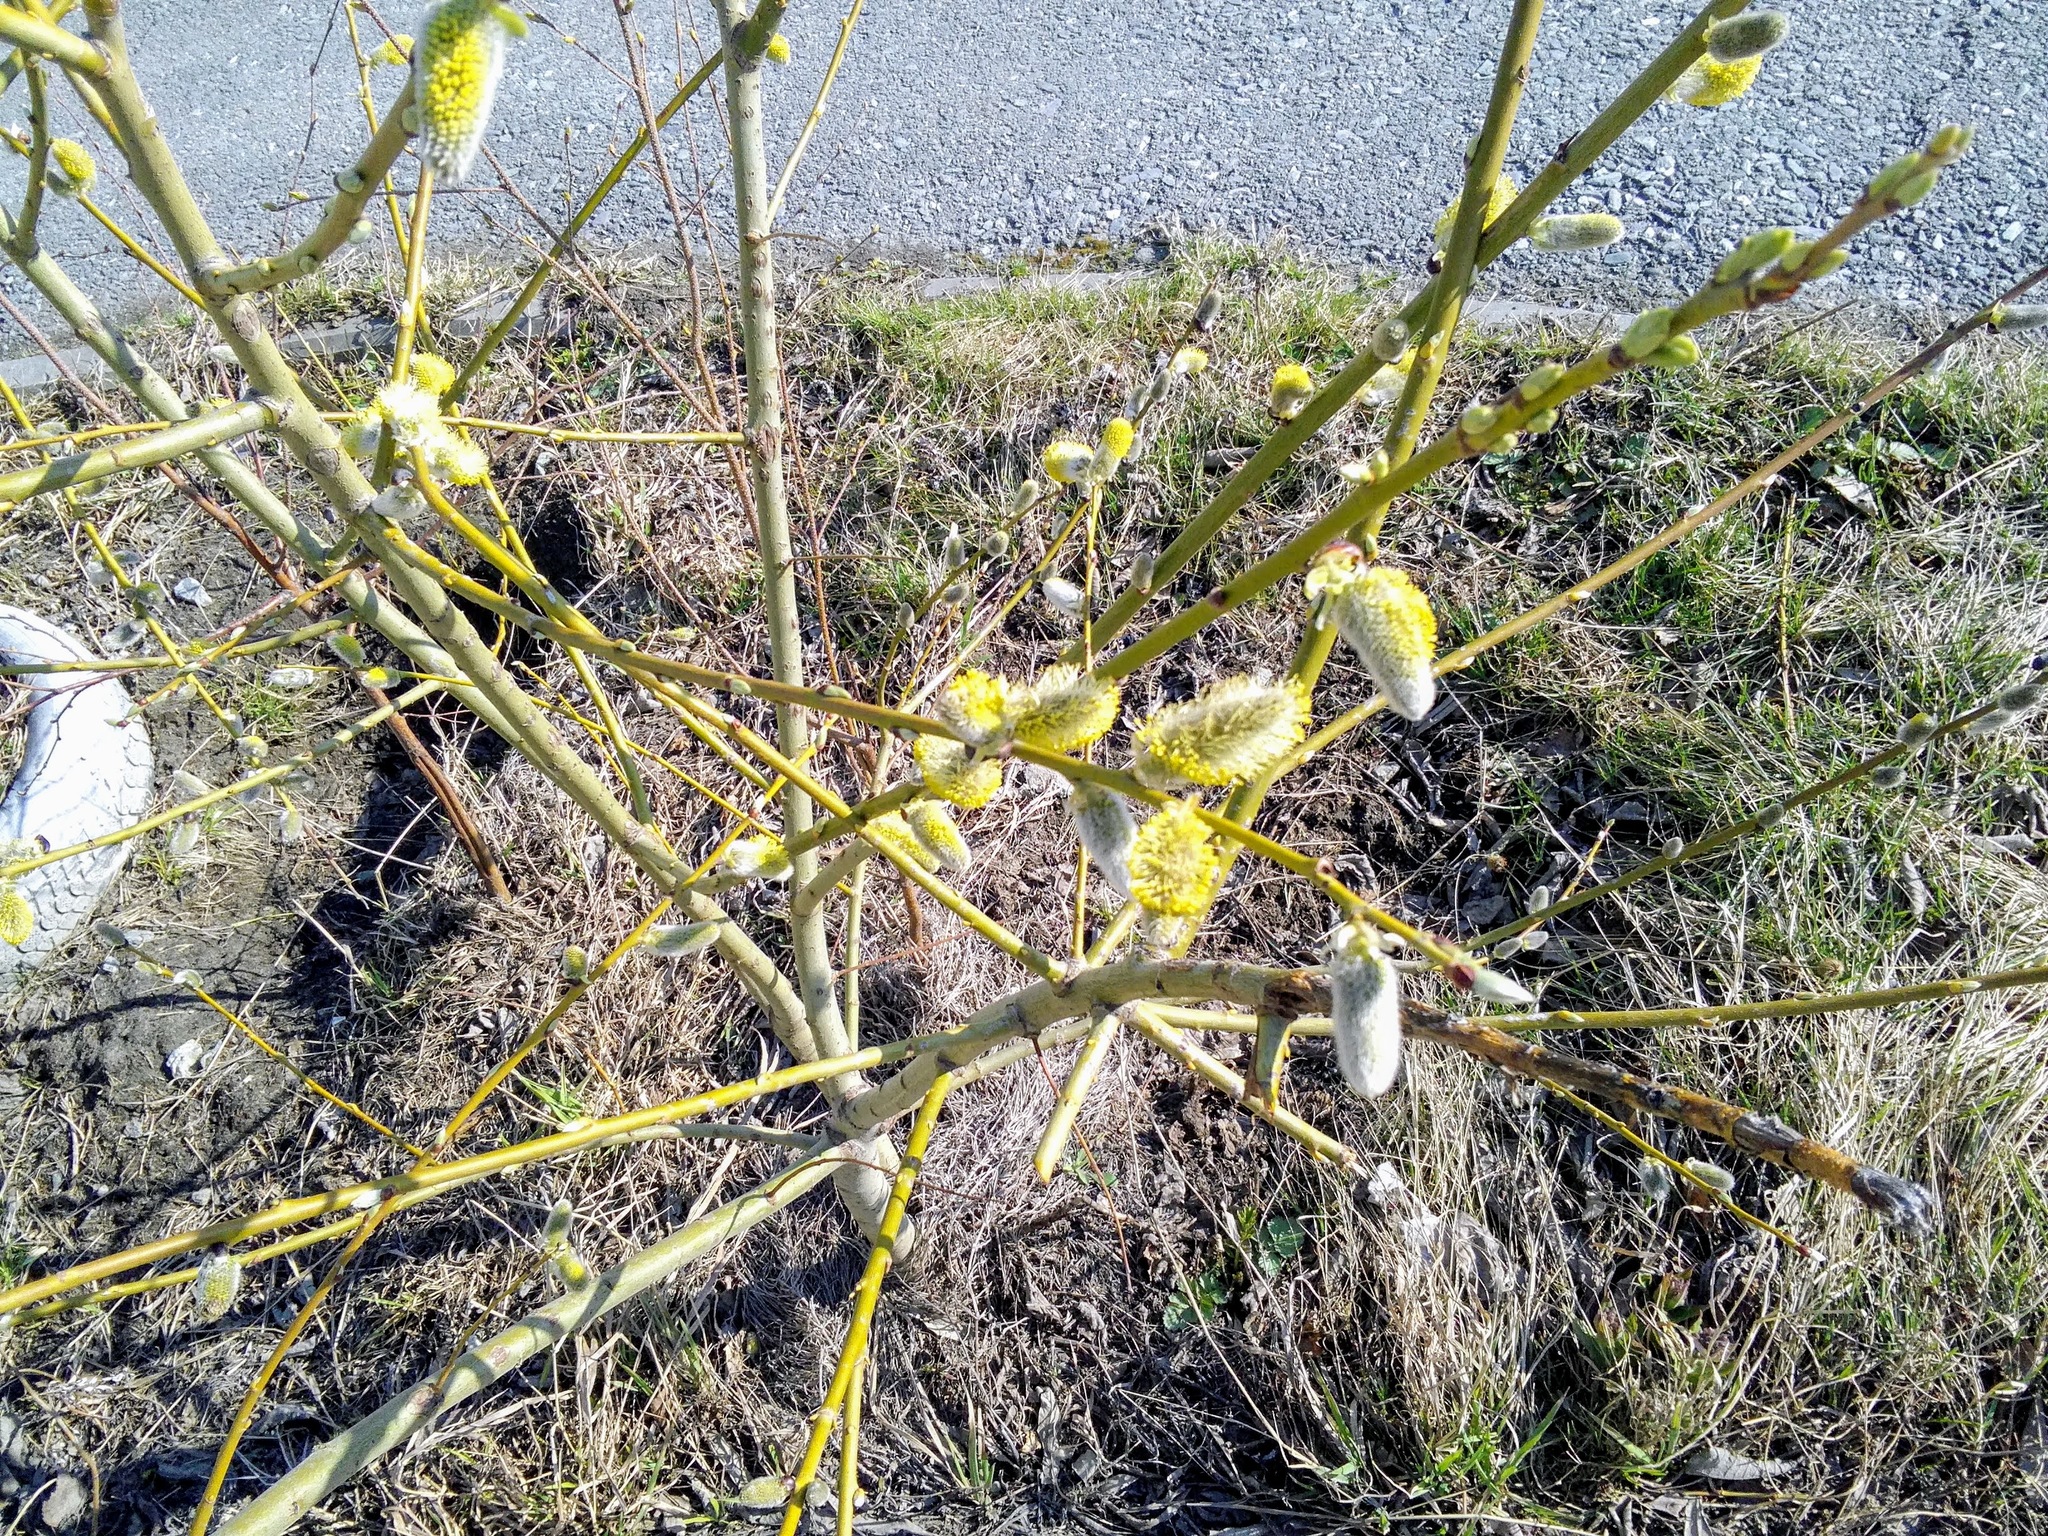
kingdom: Plantae
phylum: Tracheophyta
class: Magnoliopsida
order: Malpighiales
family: Salicaceae
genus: Salix
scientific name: Salix caprea
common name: Goat willow
